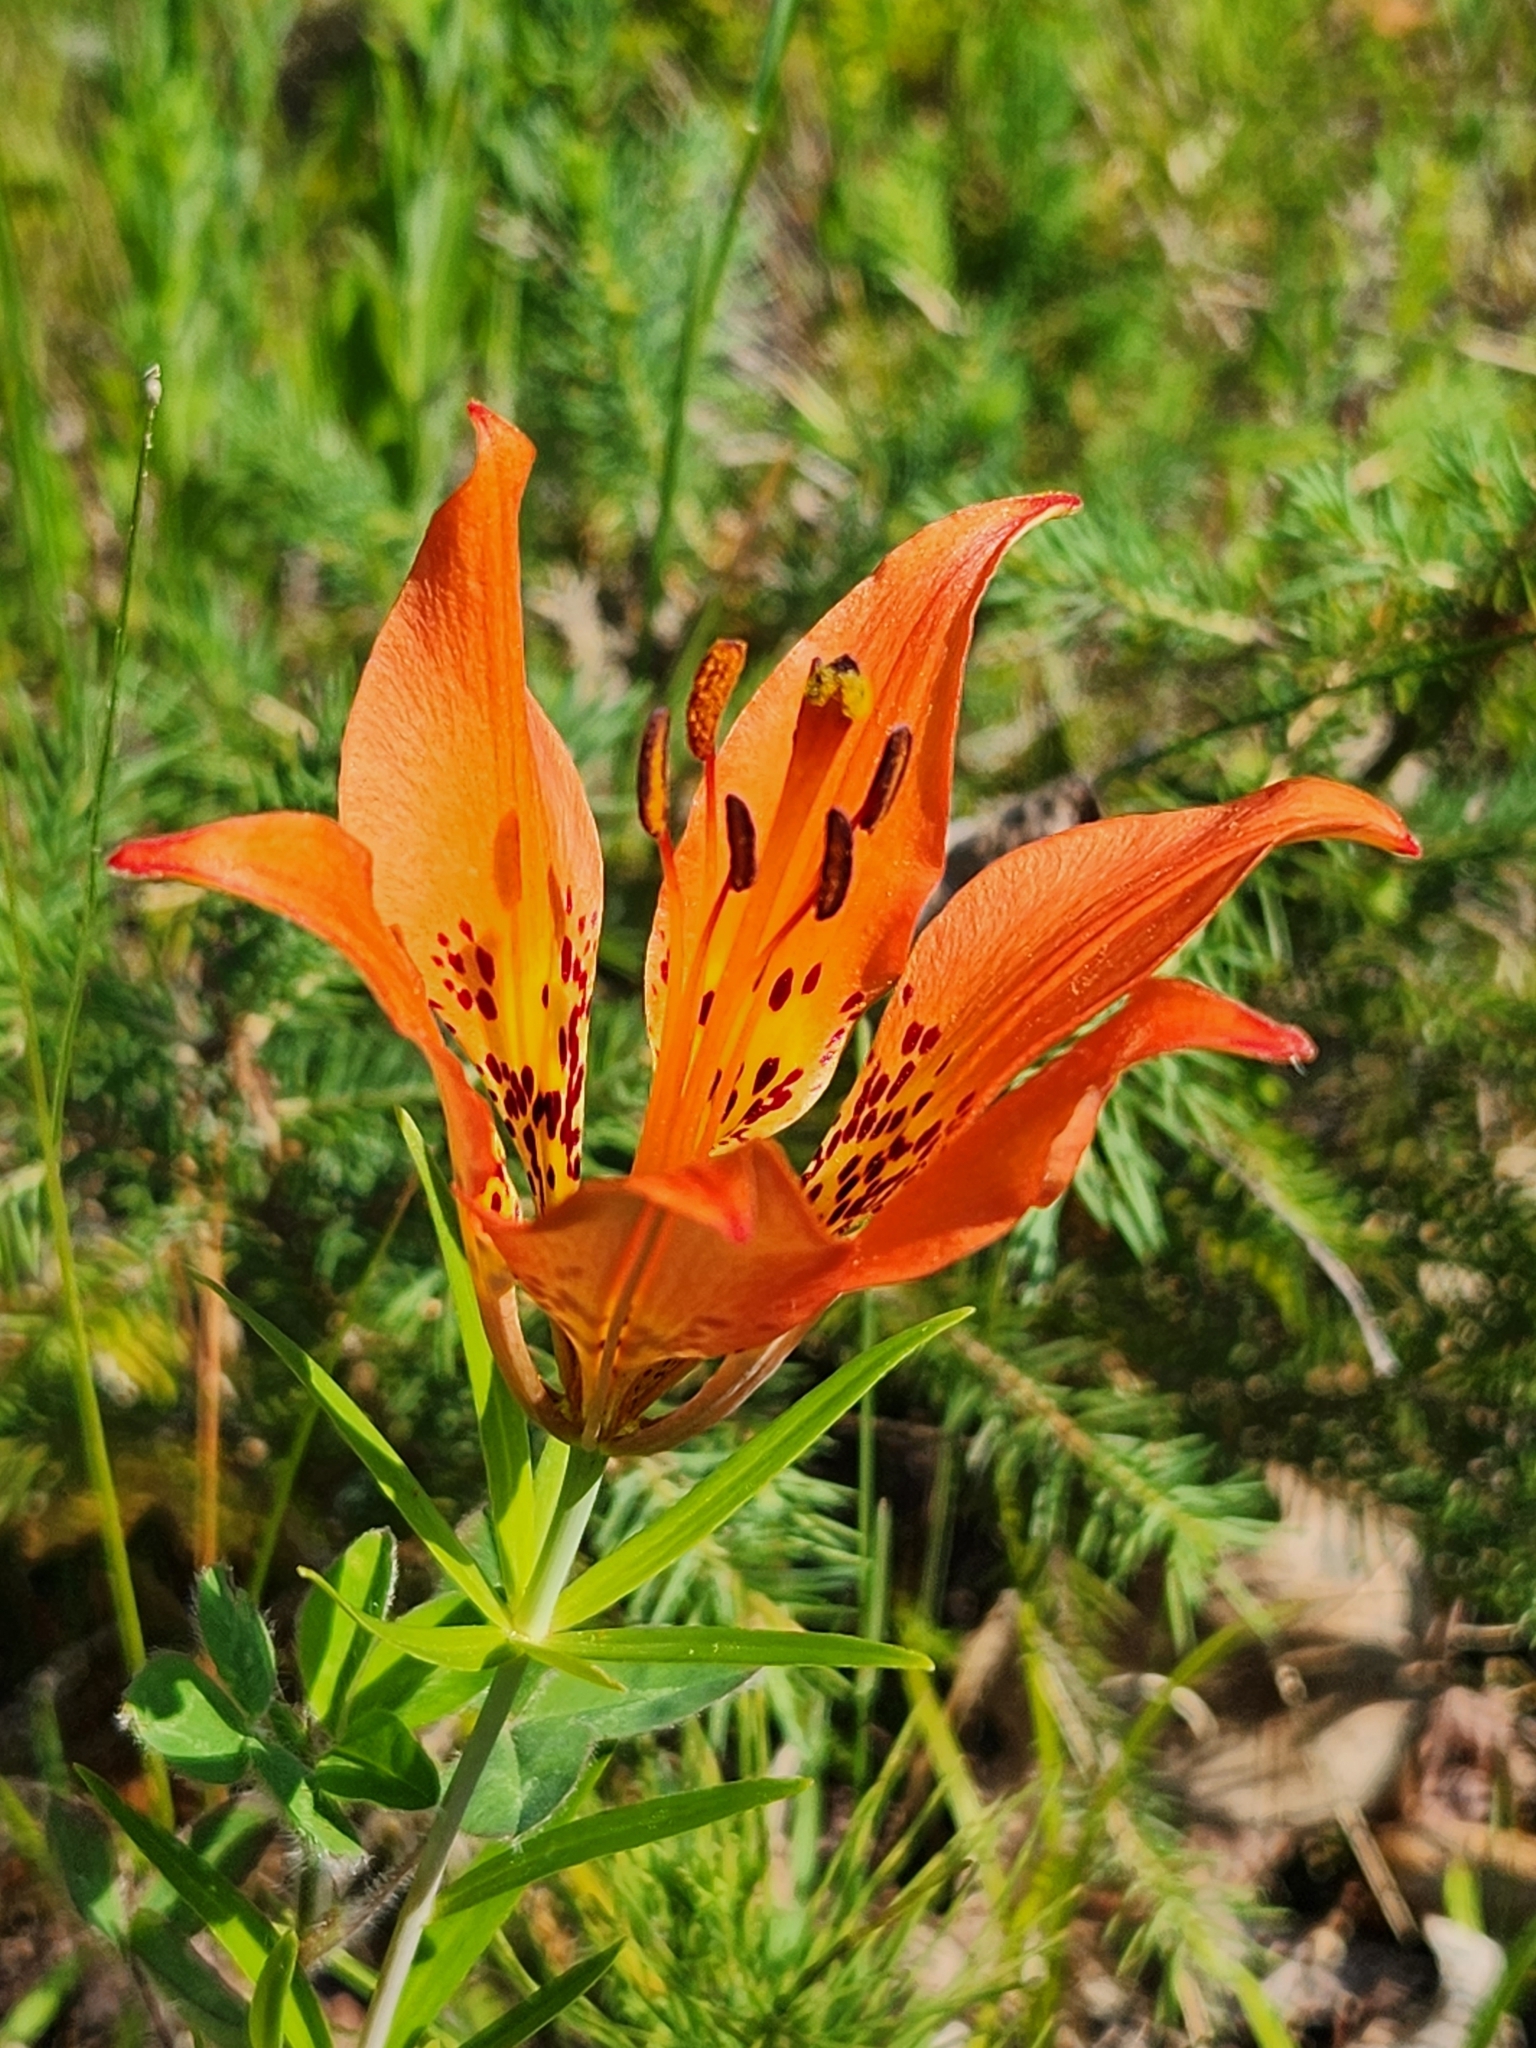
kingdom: Plantae
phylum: Tracheophyta
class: Liliopsida
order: Liliales
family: Liliaceae
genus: Lilium
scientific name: Lilium philadelphicum
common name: Red lily
